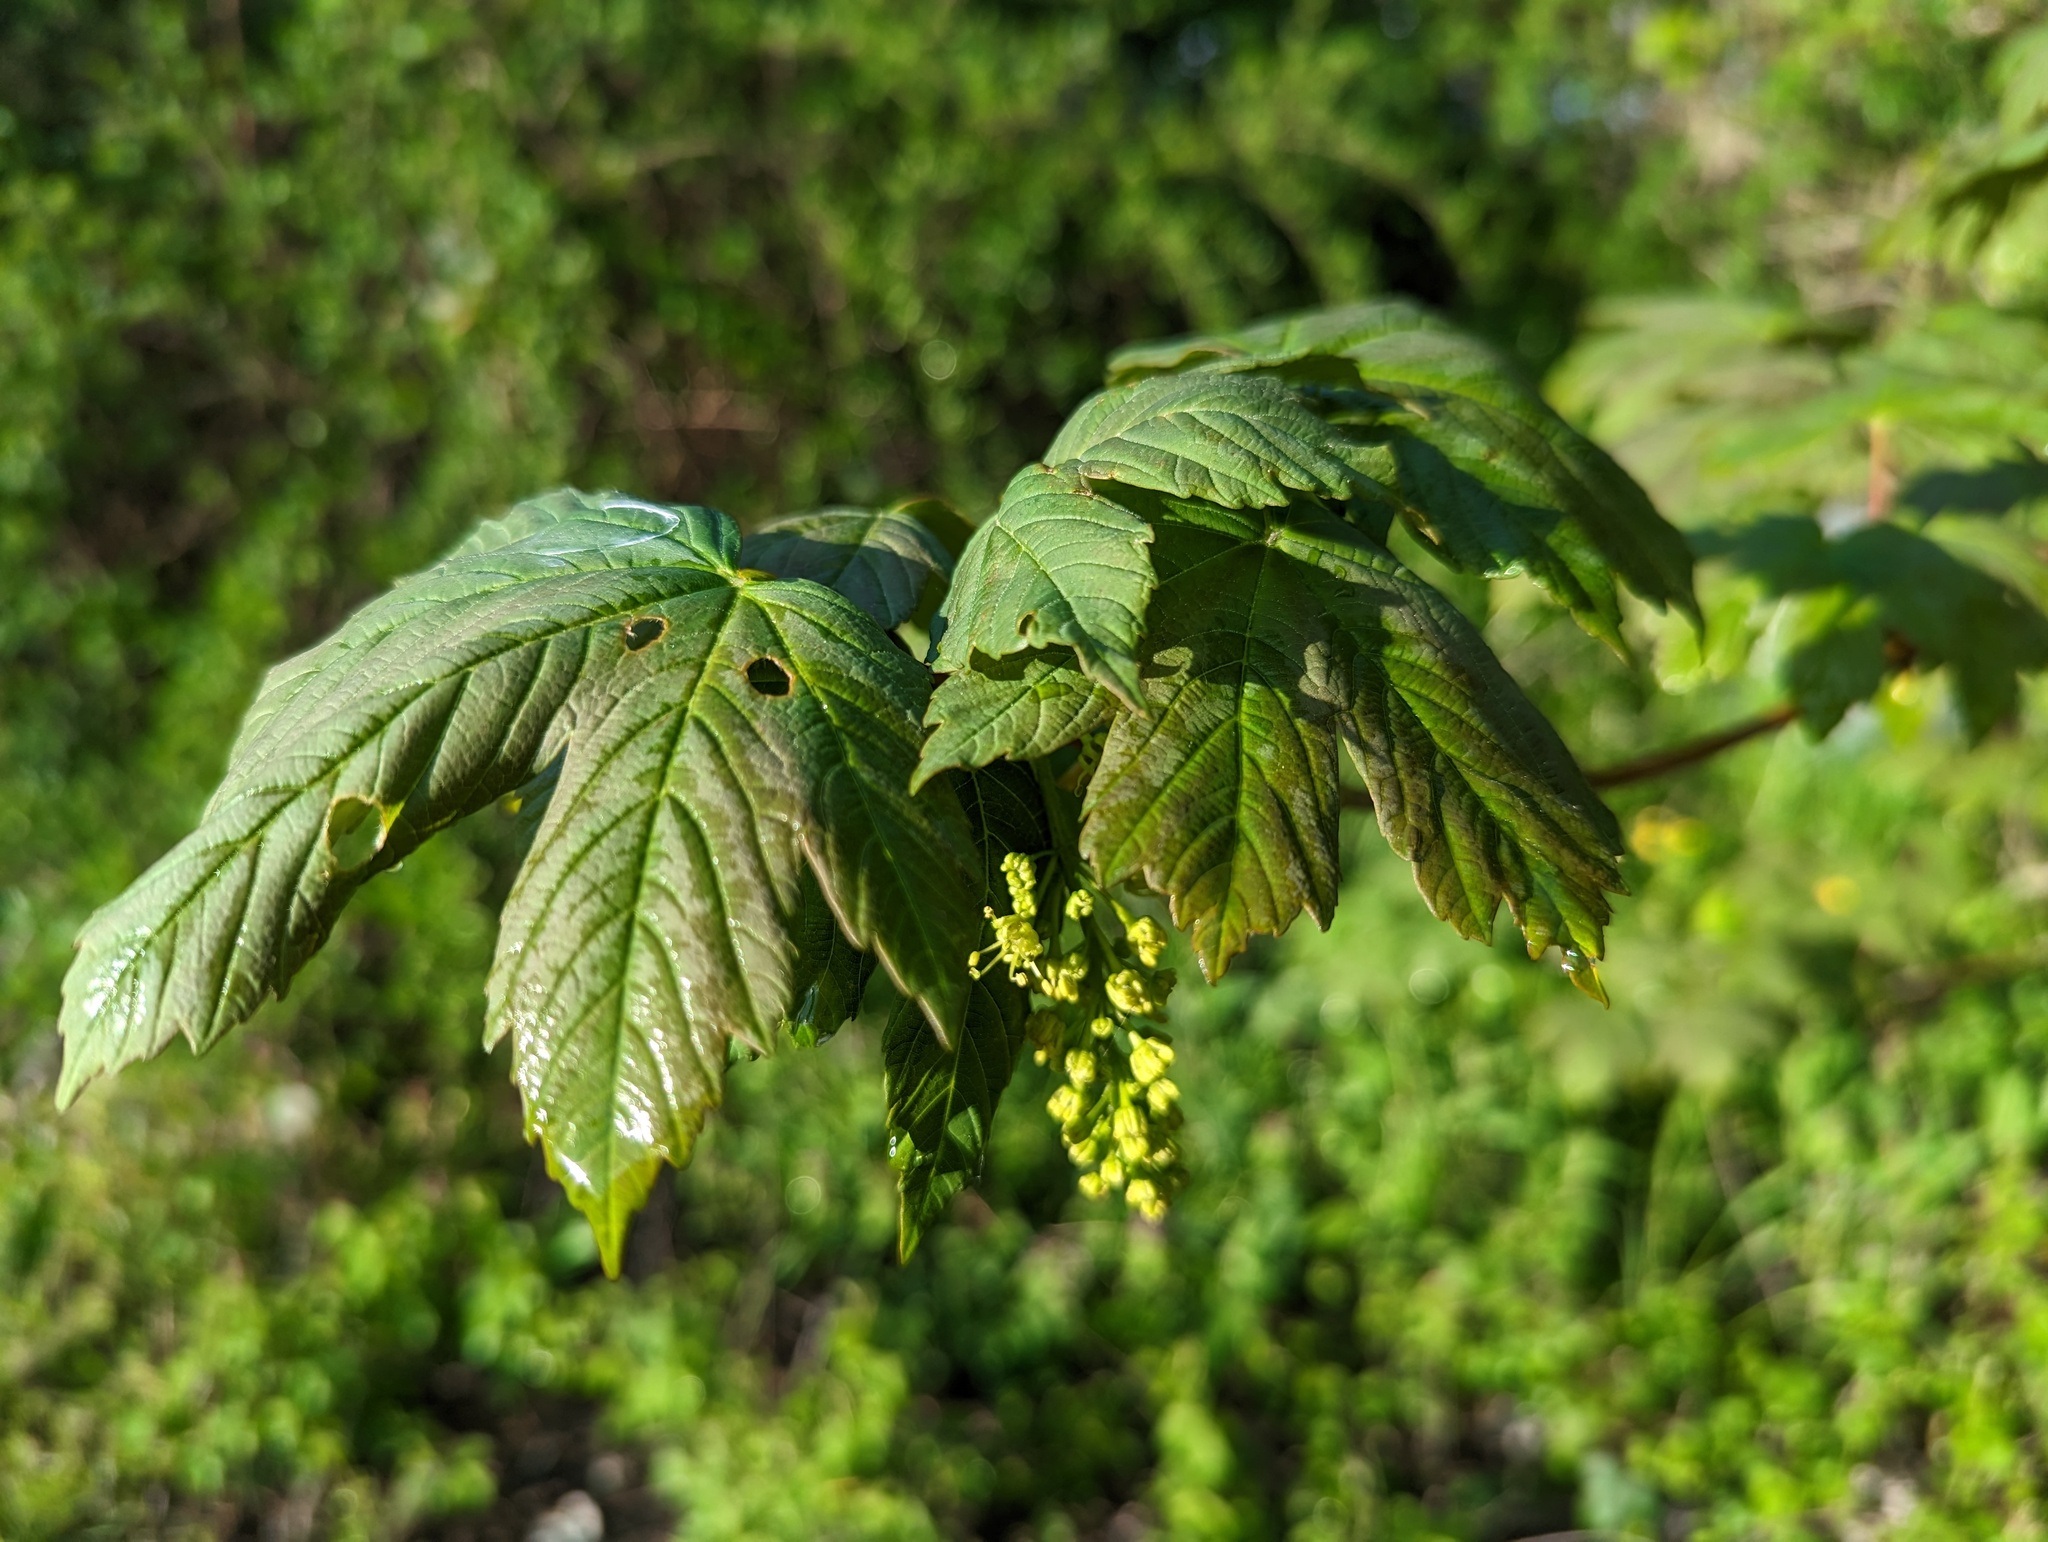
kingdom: Plantae
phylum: Tracheophyta
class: Magnoliopsida
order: Sapindales
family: Sapindaceae
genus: Acer
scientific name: Acer pseudoplatanus
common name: Sycamore
